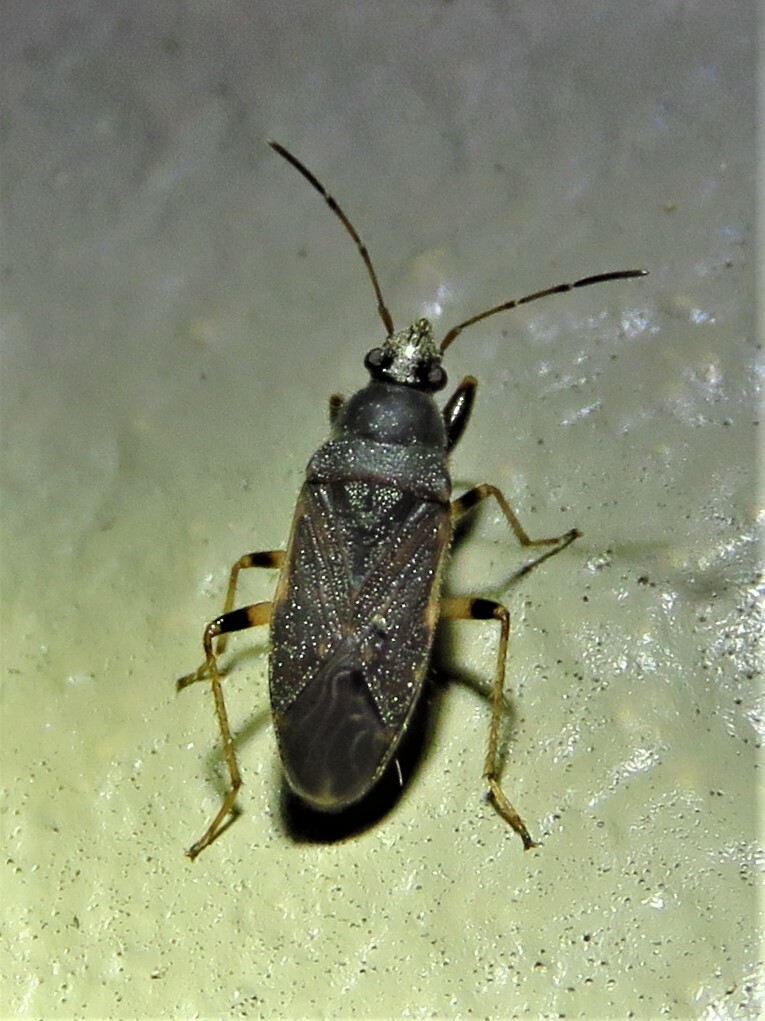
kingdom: Animalia
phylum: Arthropoda
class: Insecta
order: Hemiptera
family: Rhyparochromidae
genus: Perigenes
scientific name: Perigenes similis
